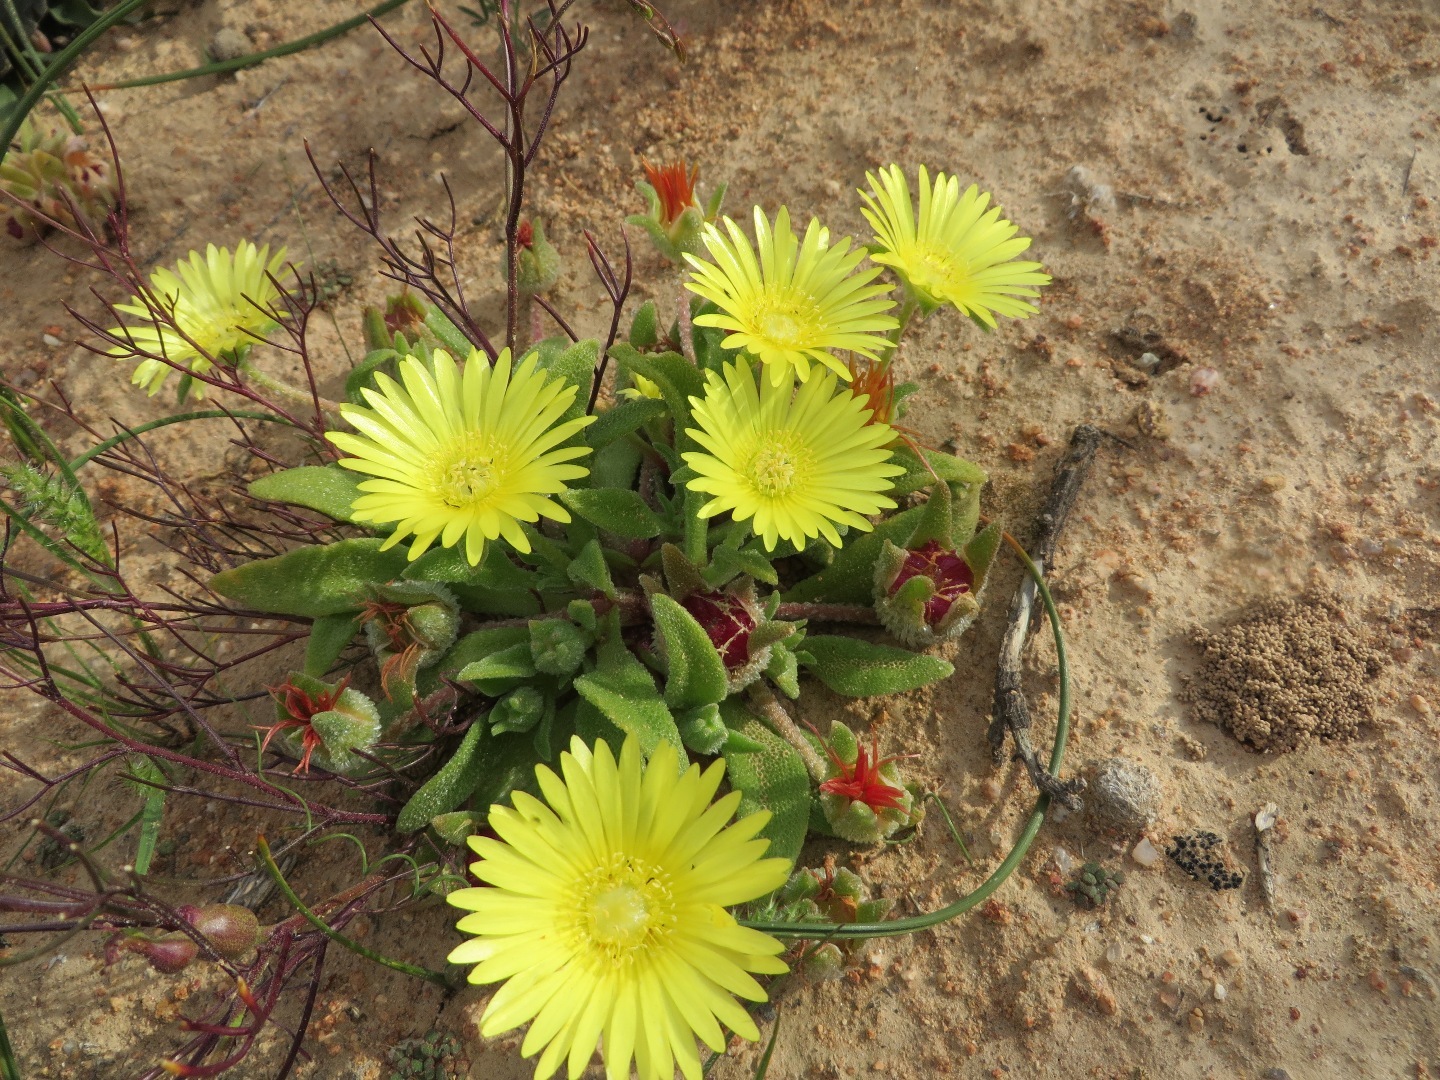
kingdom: Plantae
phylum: Tracheophyta
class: Magnoliopsida
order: Caryophyllales
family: Aizoaceae
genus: Cleretum
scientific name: Cleretum papulosum
